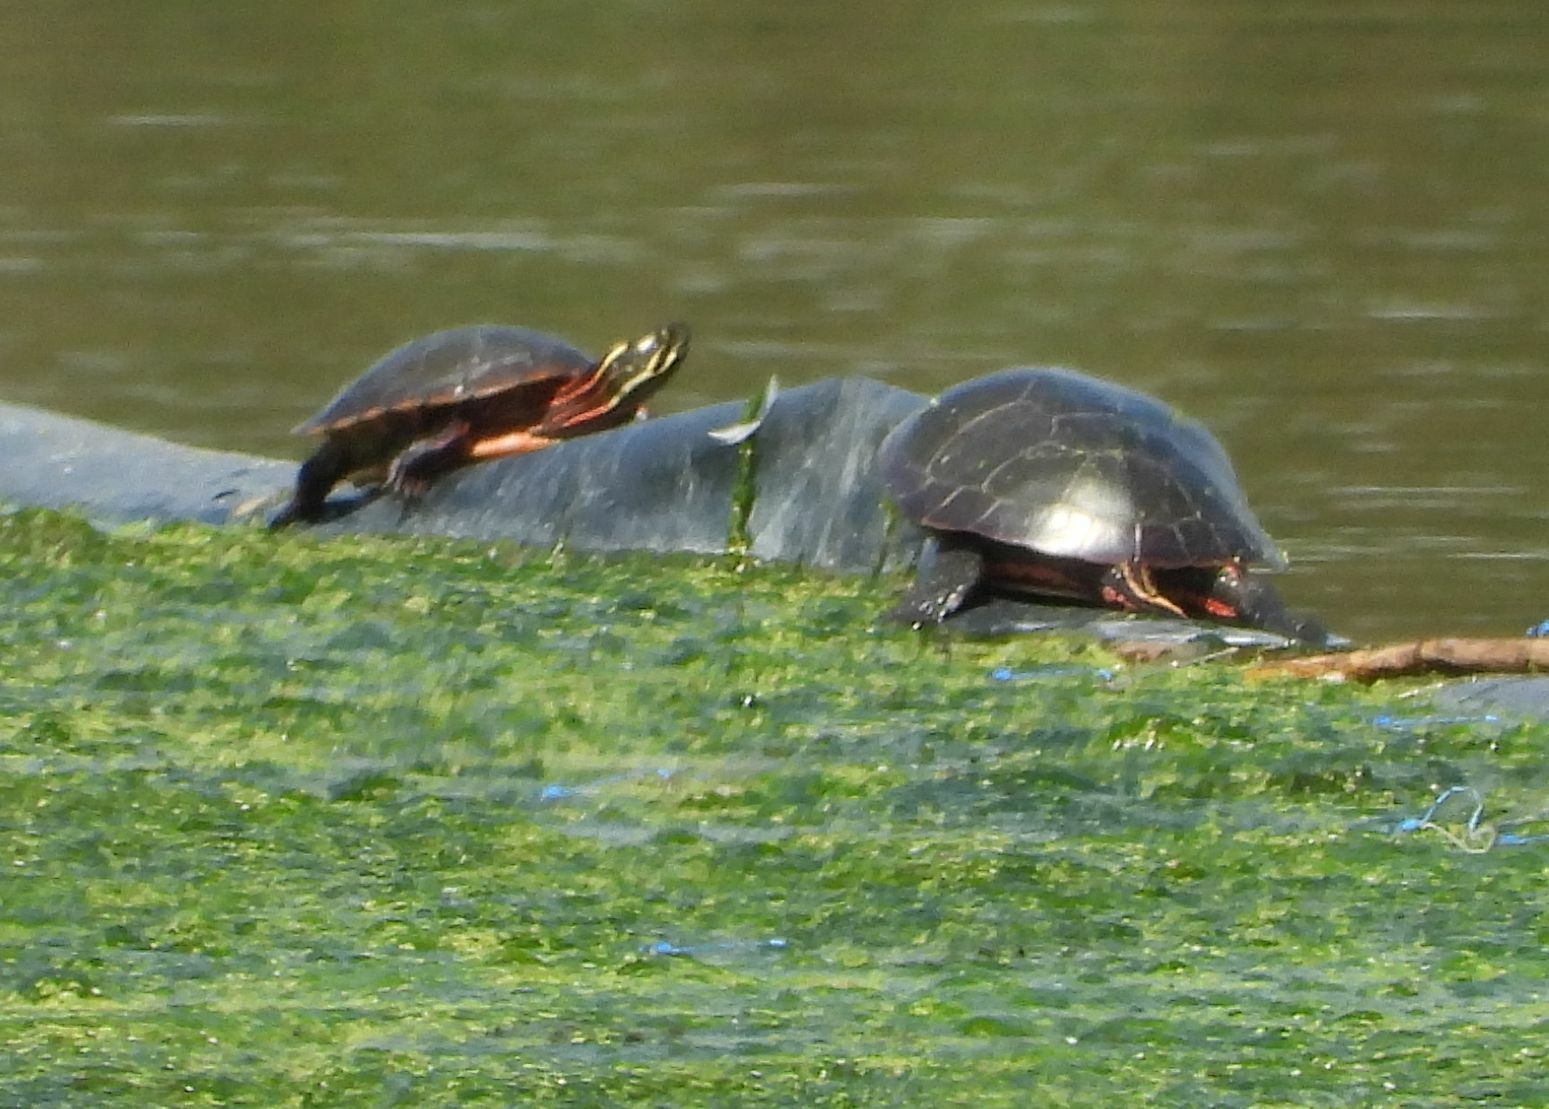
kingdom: Animalia
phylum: Chordata
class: Testudines
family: Emydidae
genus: Chrysemys
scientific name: Chrysemys picta
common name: Painted turtle
